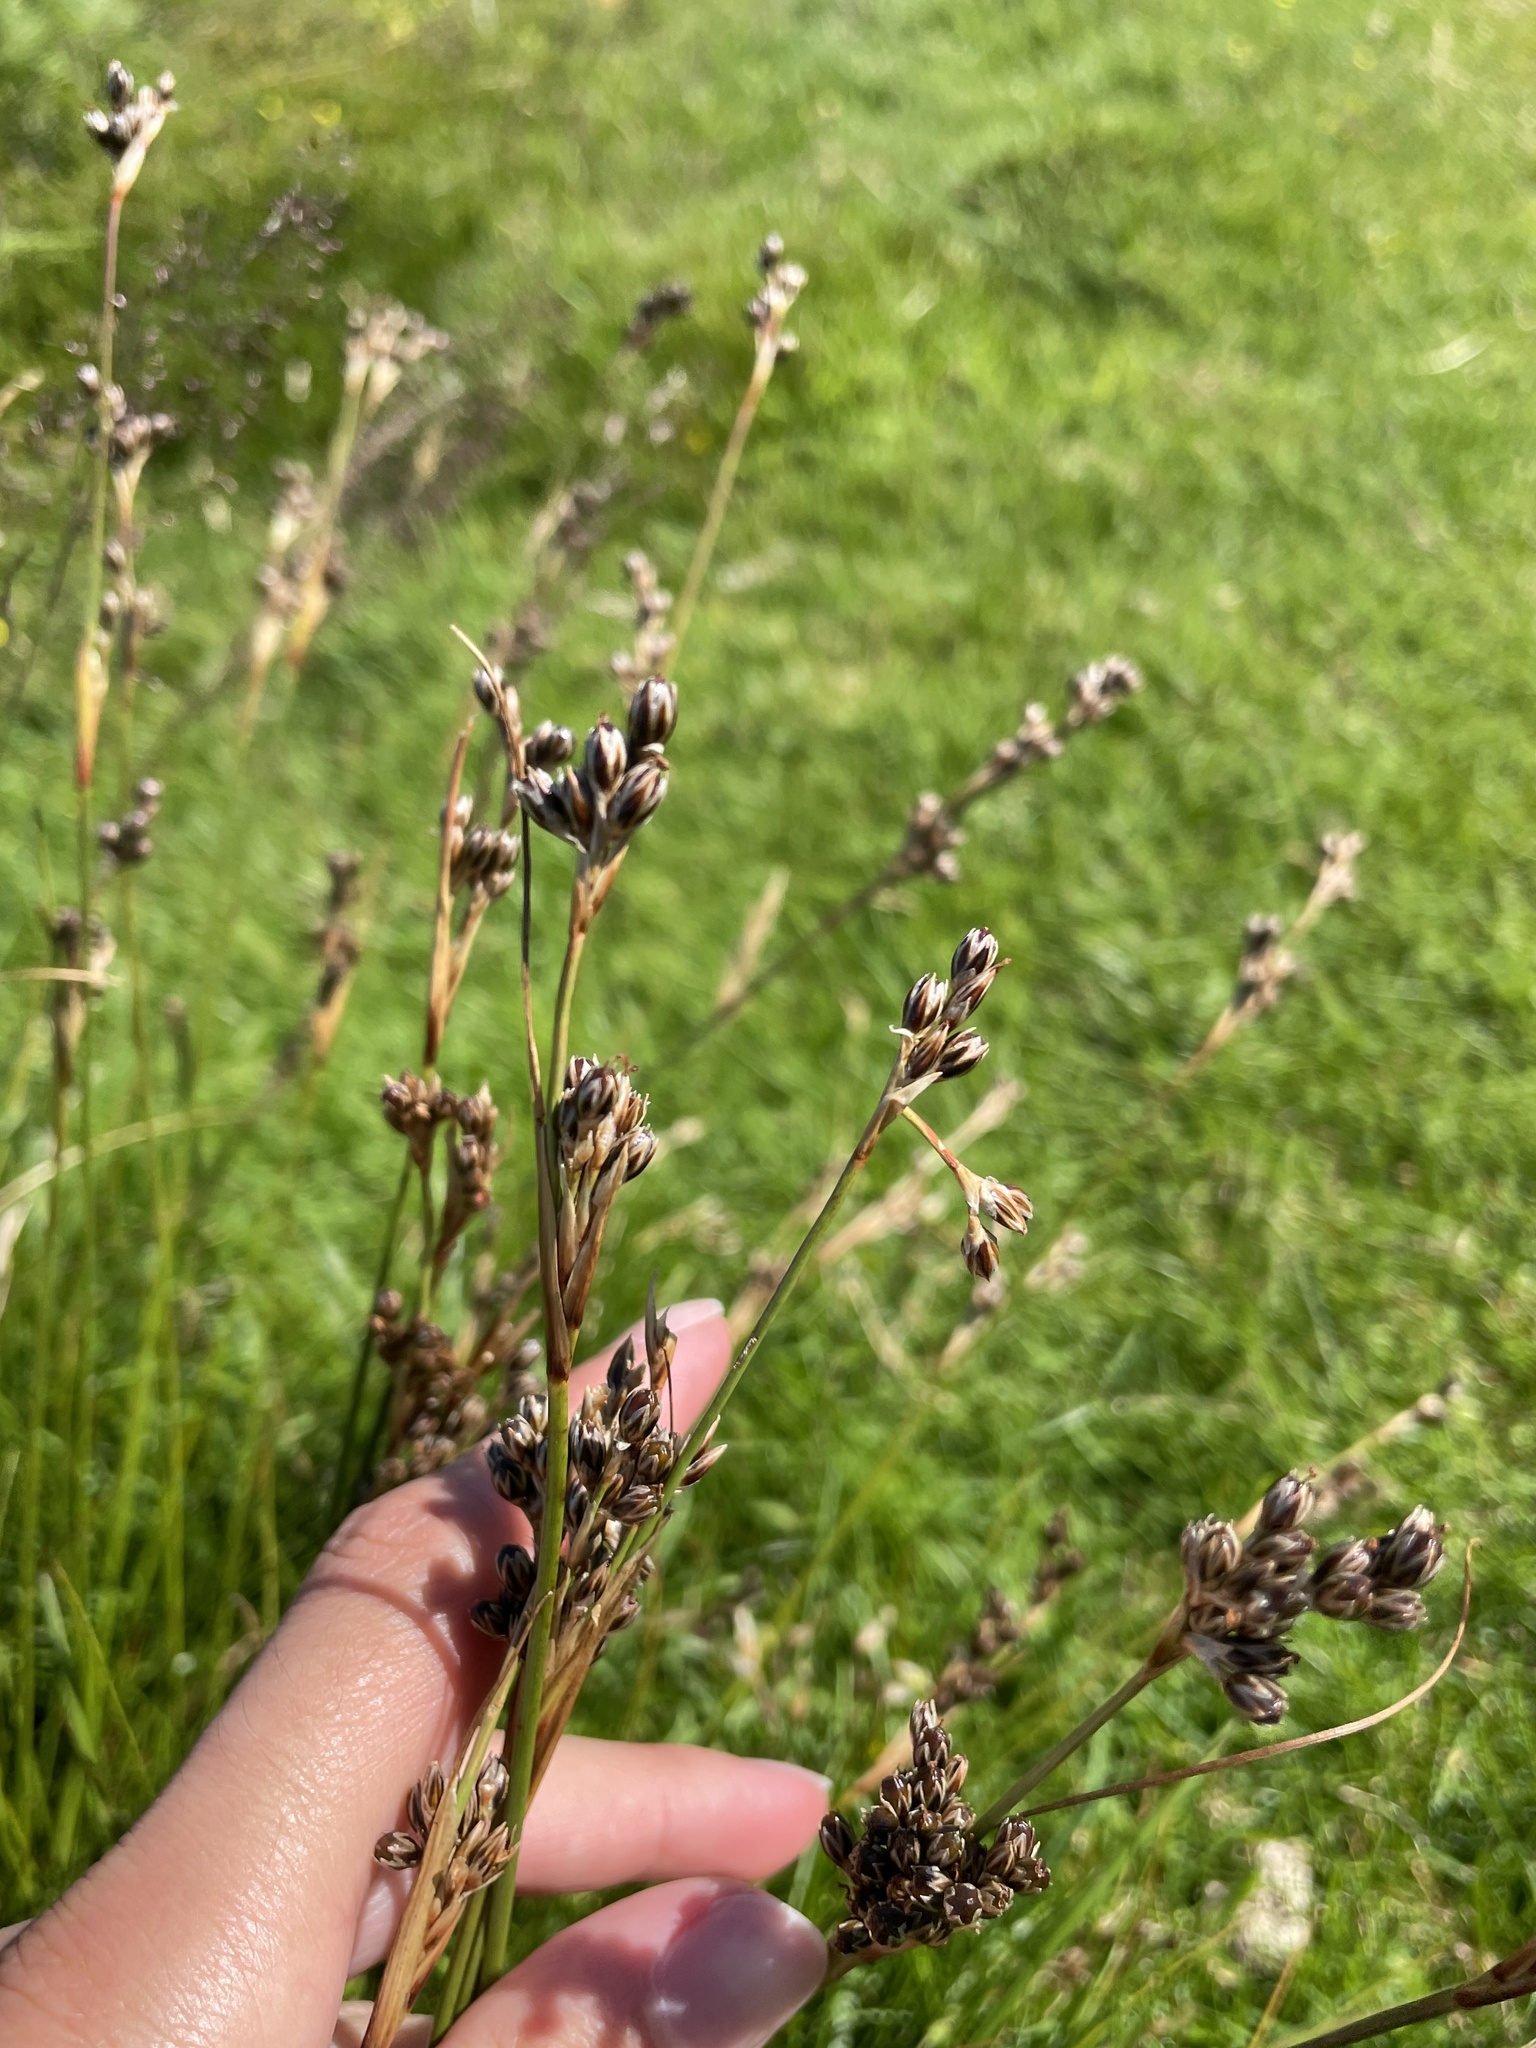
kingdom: Plantae
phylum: Tracheophyta
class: Liliopsida
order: Poales
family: Juncaceae
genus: Juncus
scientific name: Juncus squarrosus
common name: Heath rush
